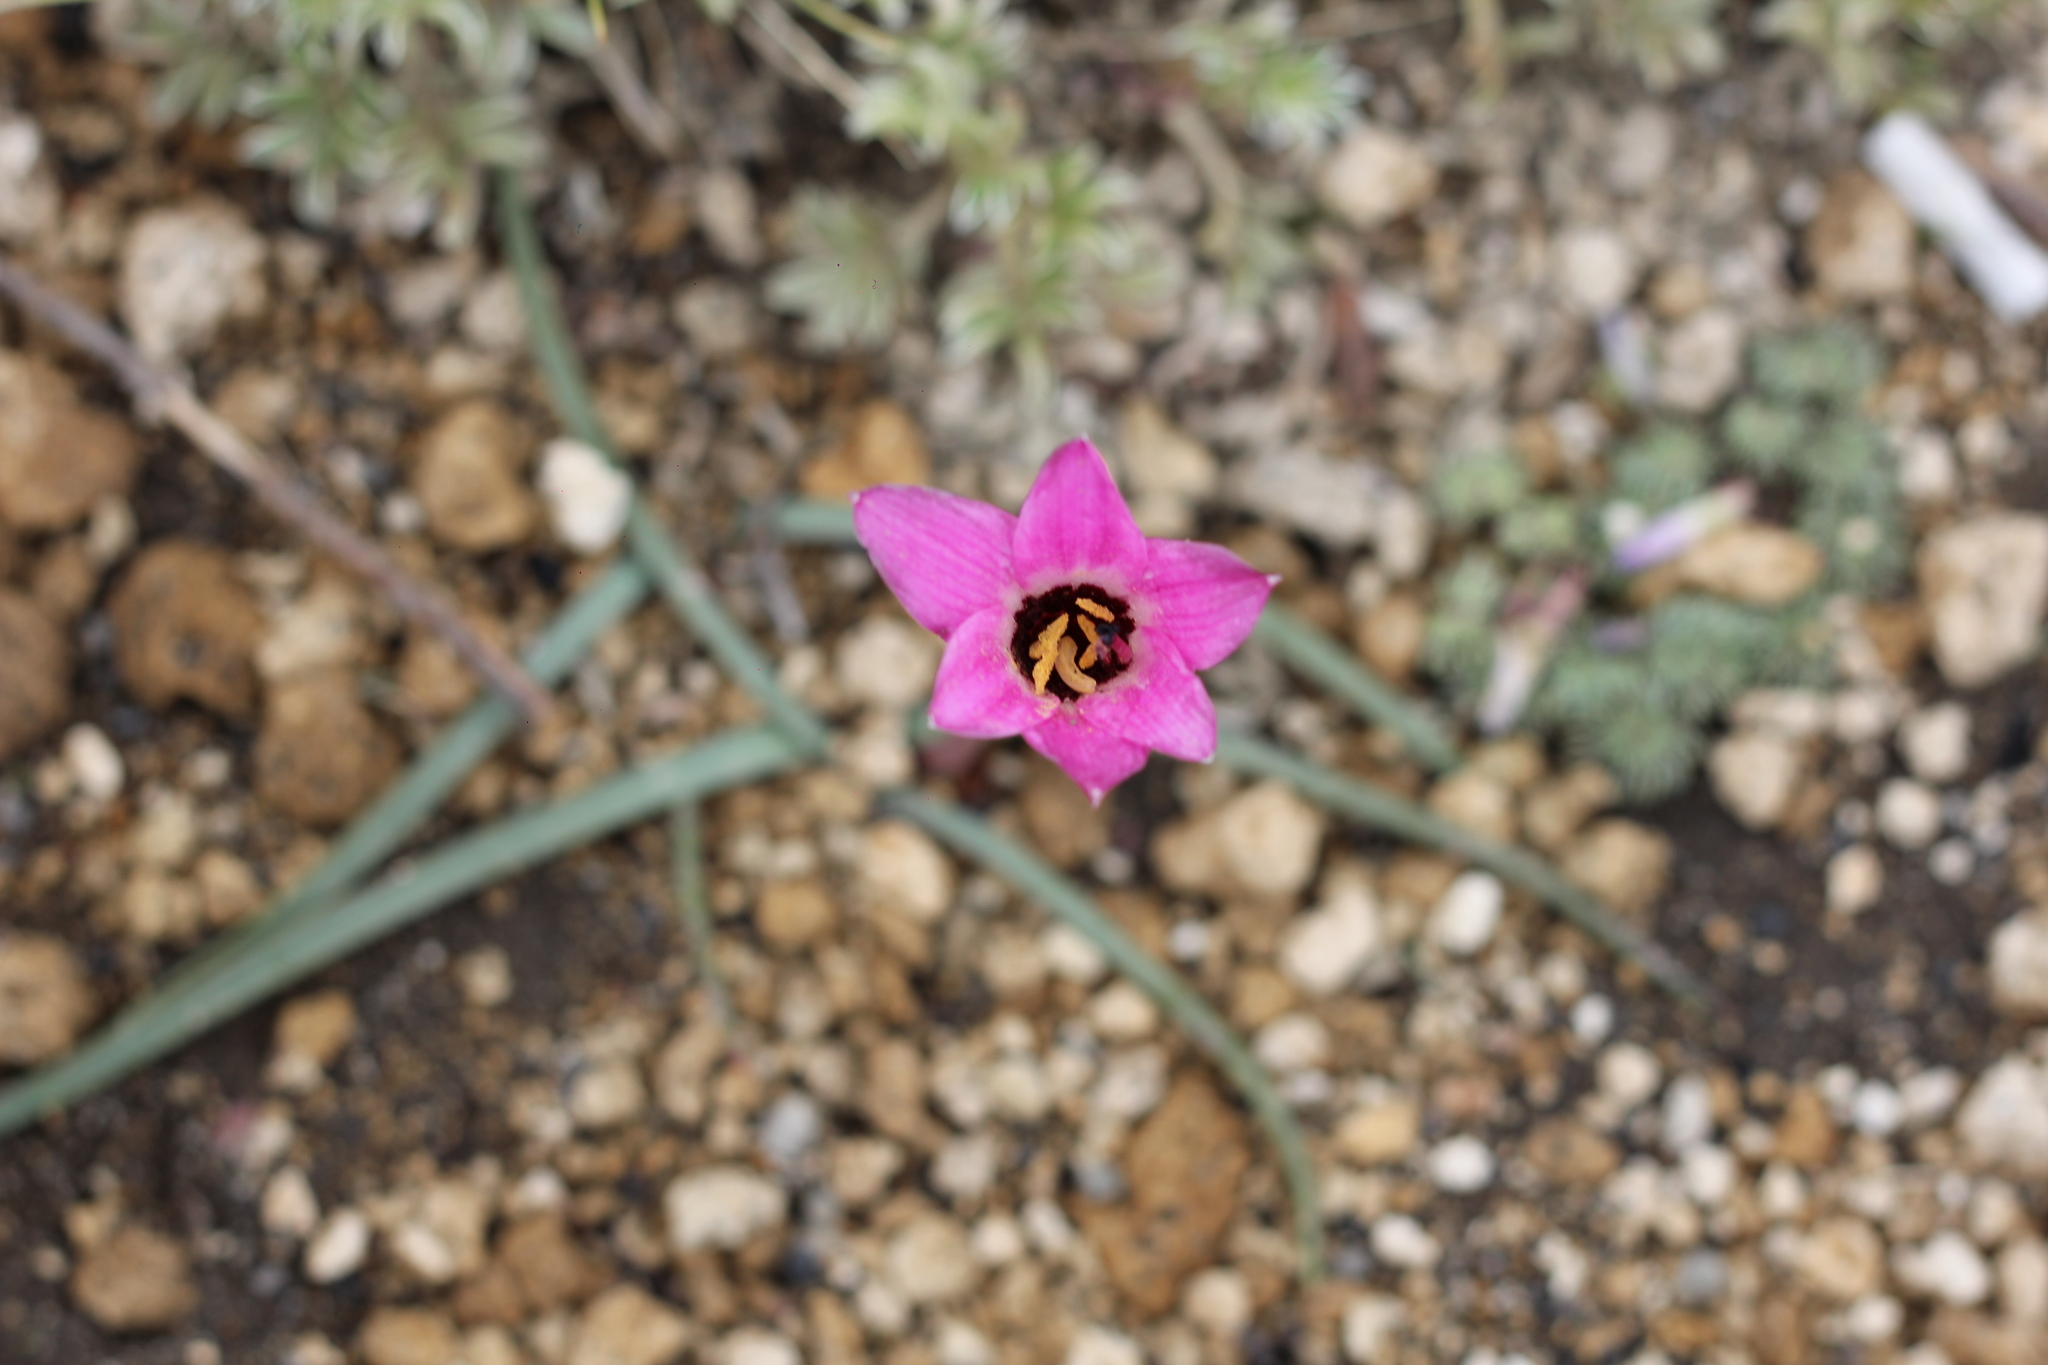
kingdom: Plantae
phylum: Tracheophyta
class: Liliopsida
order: Asparagales
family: Amaryllidaceae
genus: Rhodolirium
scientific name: Rhodolirium andicola
